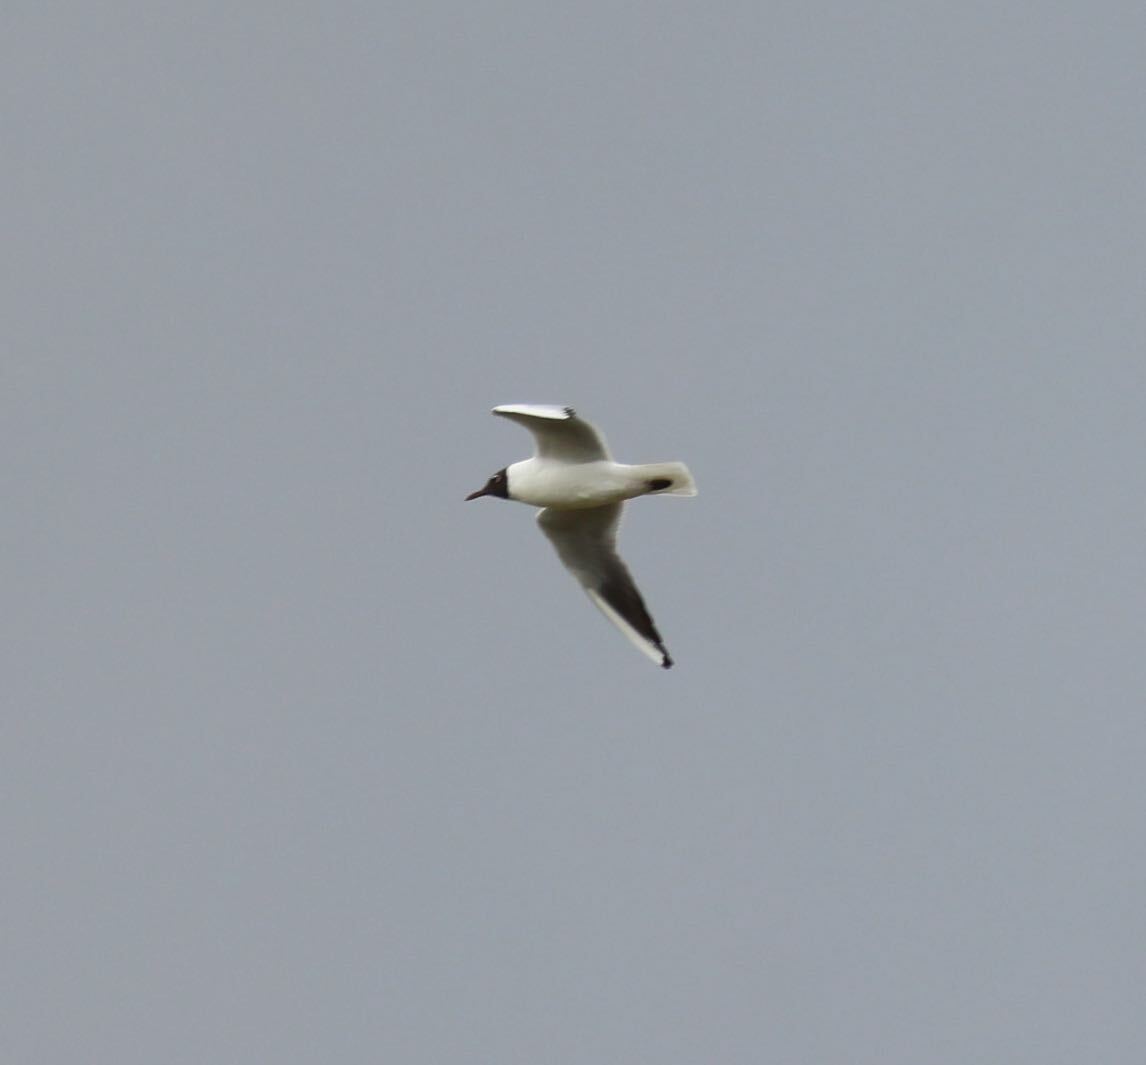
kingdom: Animalia
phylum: Chordata
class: Aves
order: Charadriiformes
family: Laridae
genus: Chroicocephalus
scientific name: Chroicocephalus ridibundus
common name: Black-headed gull
